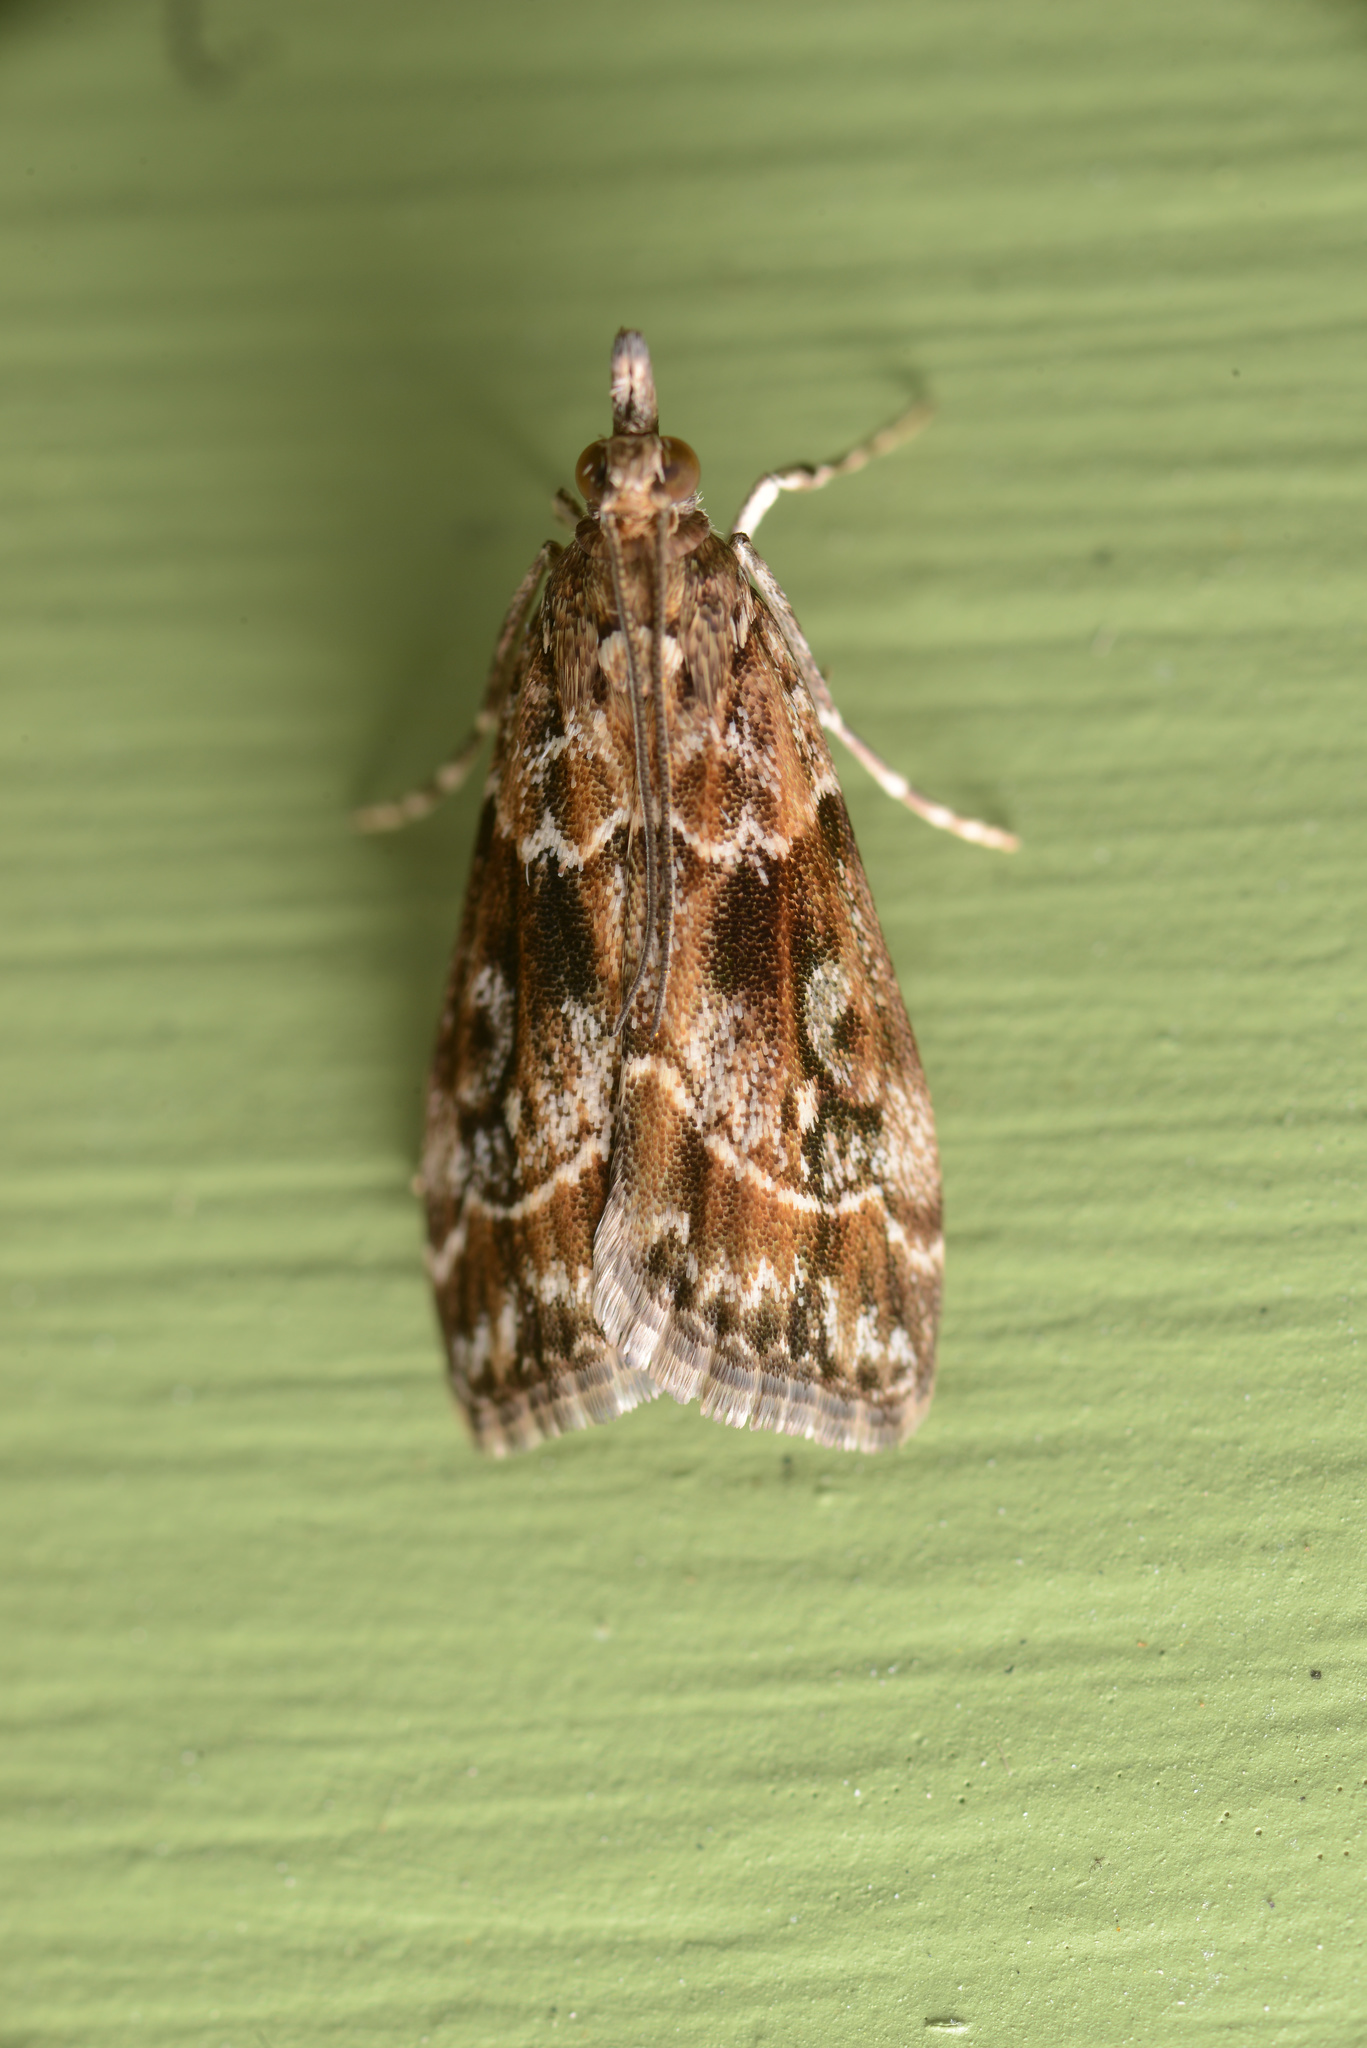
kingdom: Animalia
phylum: Arthropoda
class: Insecta
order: Lepidoptera
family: Crambidae
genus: Eudonia
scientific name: Eudonia legnota
